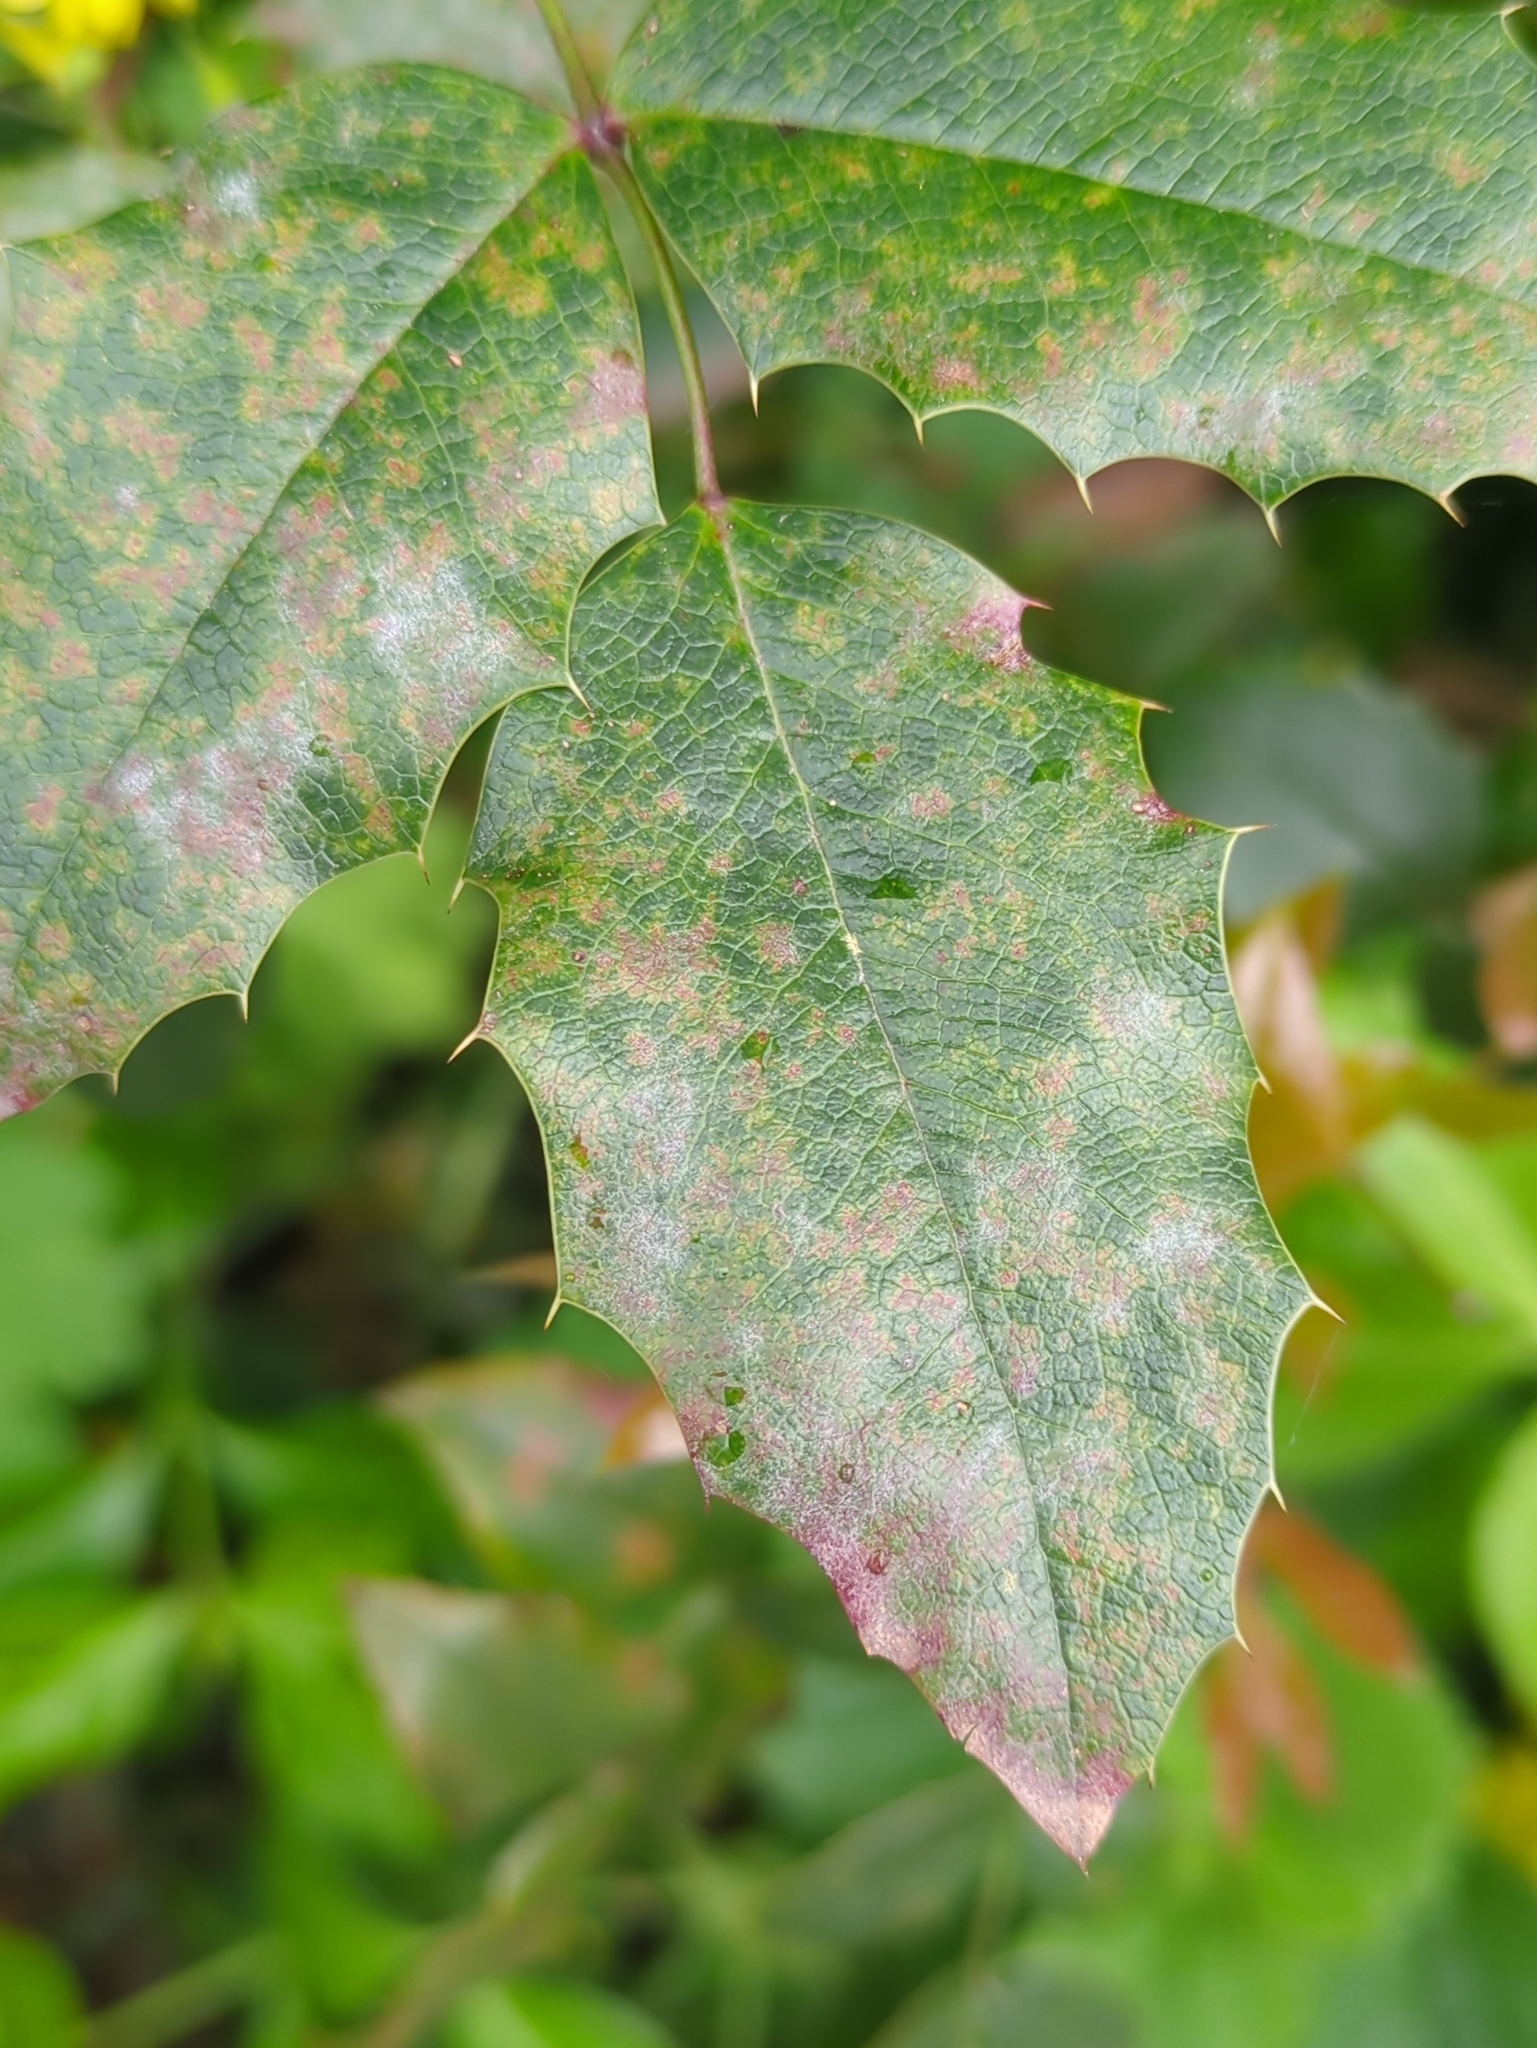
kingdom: Fungi
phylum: Ascomycota
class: Leotiomycetes
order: Helotiales
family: Erysiphaceae
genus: Erysiphe
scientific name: Erysiphe berberidis
